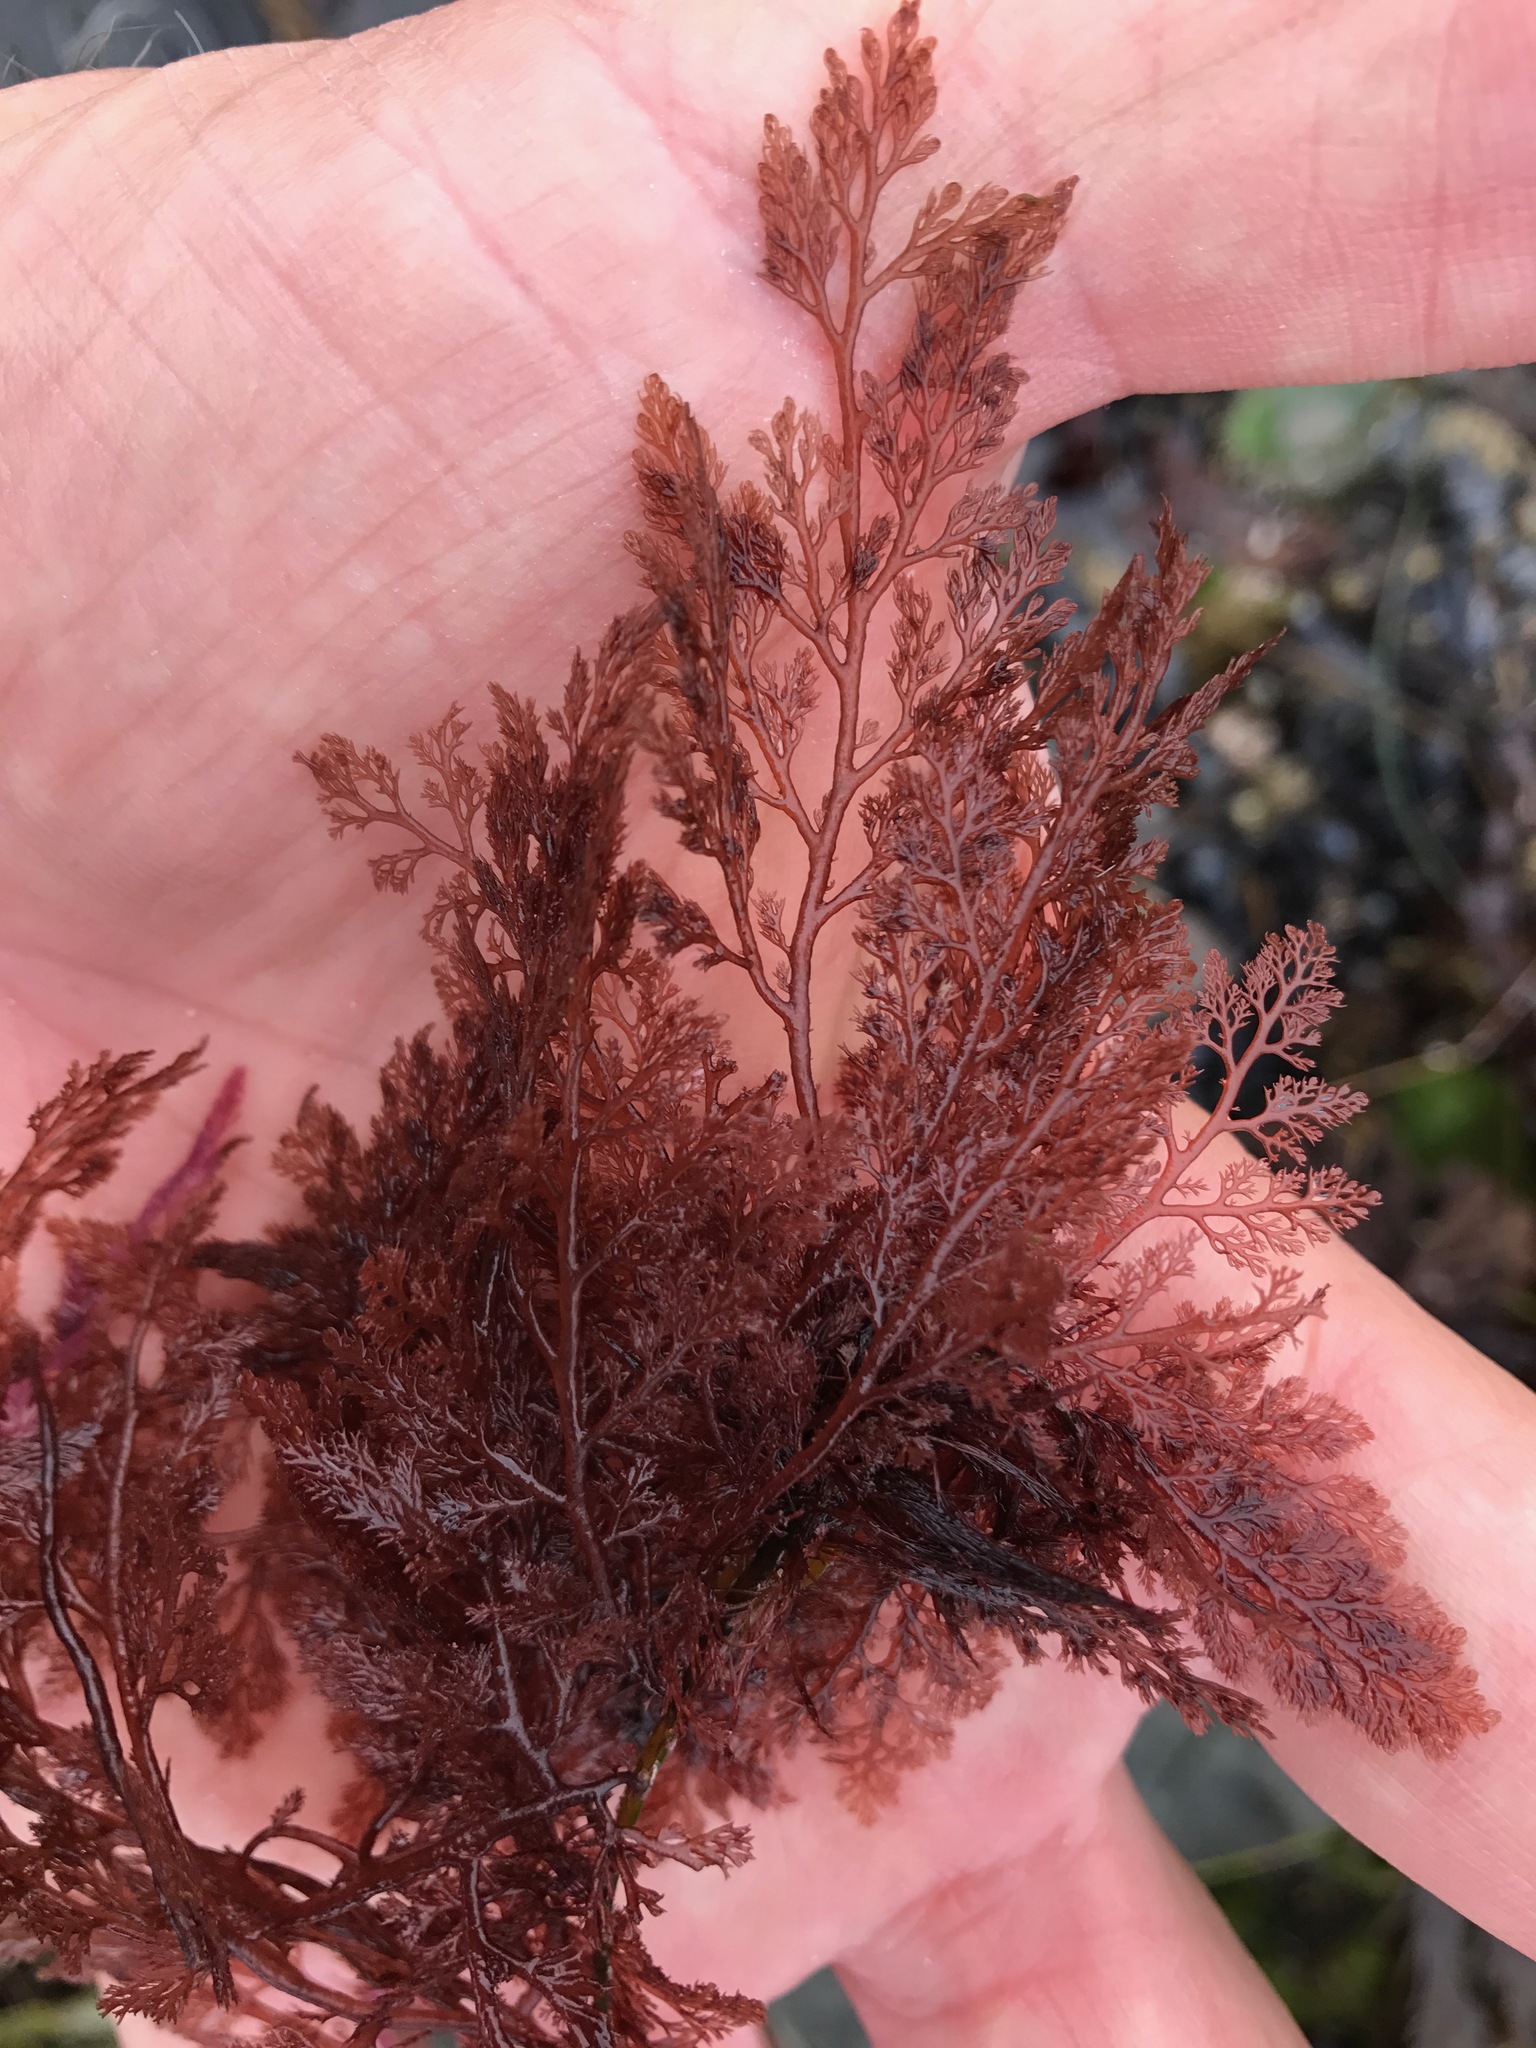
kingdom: Plantae
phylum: Rhodophyta
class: Florideophyceae
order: Ceramiales
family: Ceramiaceae
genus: Microcladia
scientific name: Microcladia coulteri
